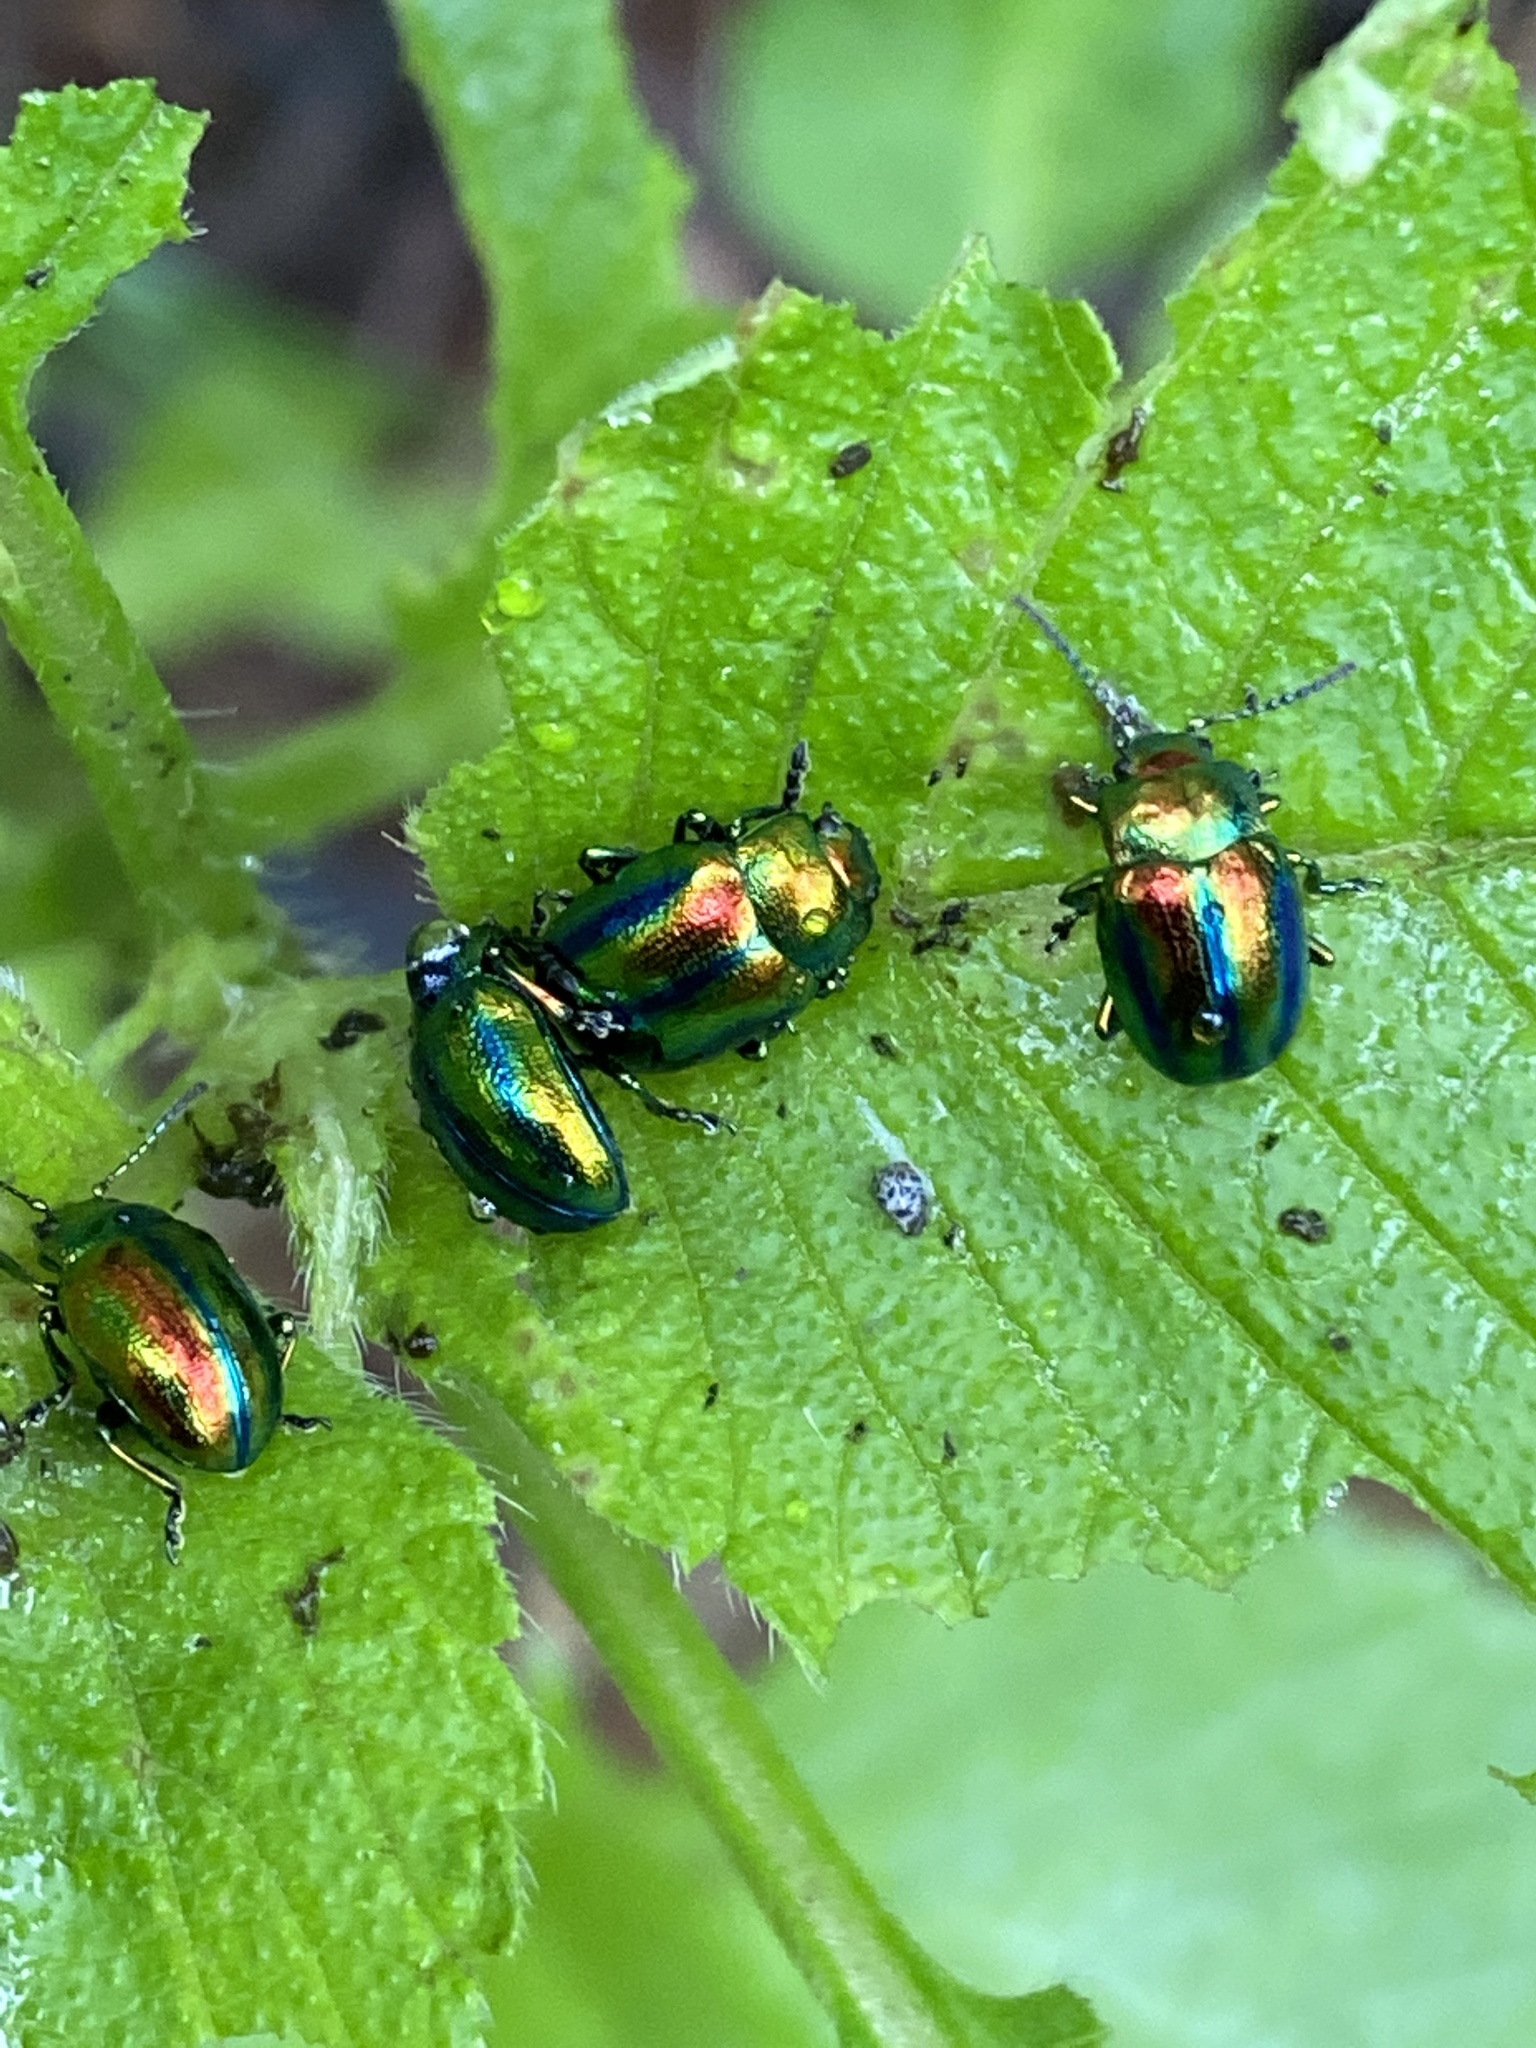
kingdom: Animalia
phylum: Arthropoda
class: Insecta
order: Coleoptera
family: Chrysomelidae
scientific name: Chrysomelidae
